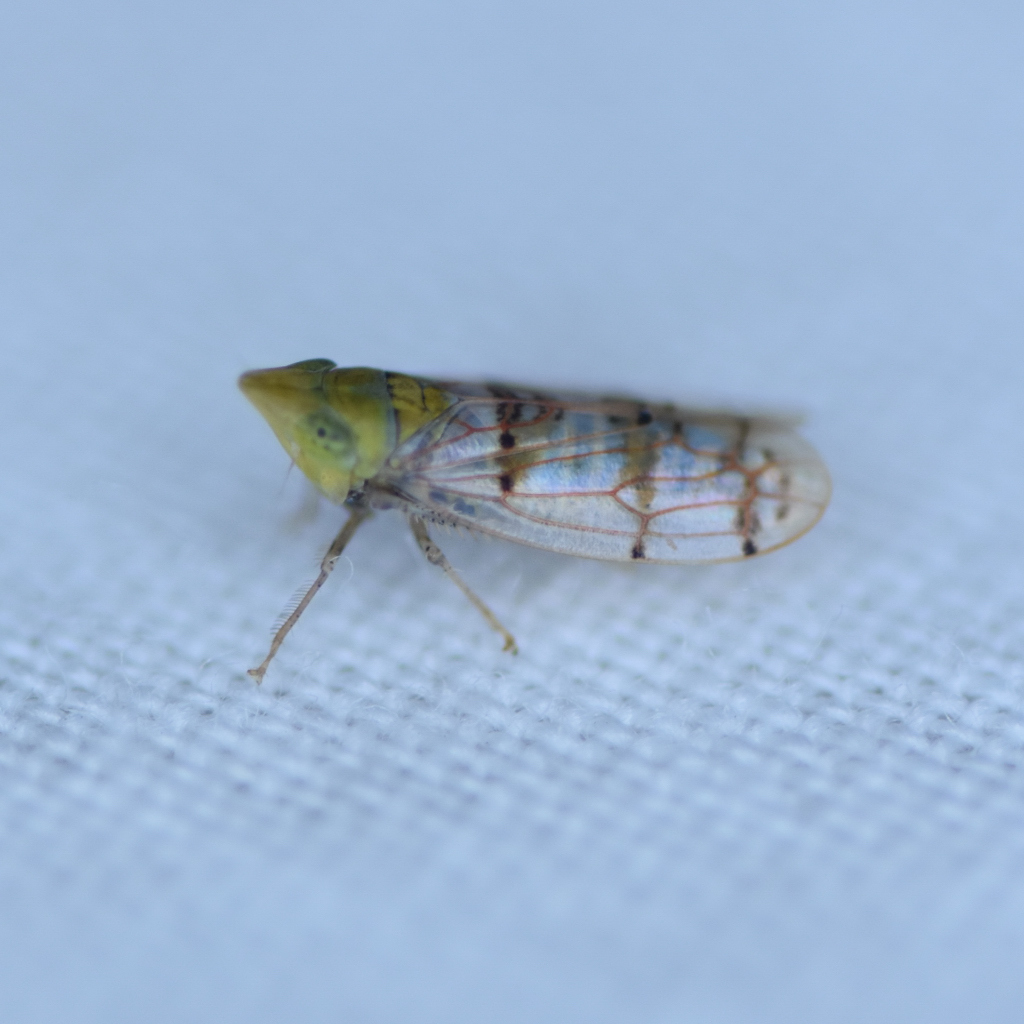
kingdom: Animalia
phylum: Arthropoda
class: Insecta
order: Hemiptera
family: Cicadellidae
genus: Japananus
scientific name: Japananus hyalinus
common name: The japanese maple leafhopper
